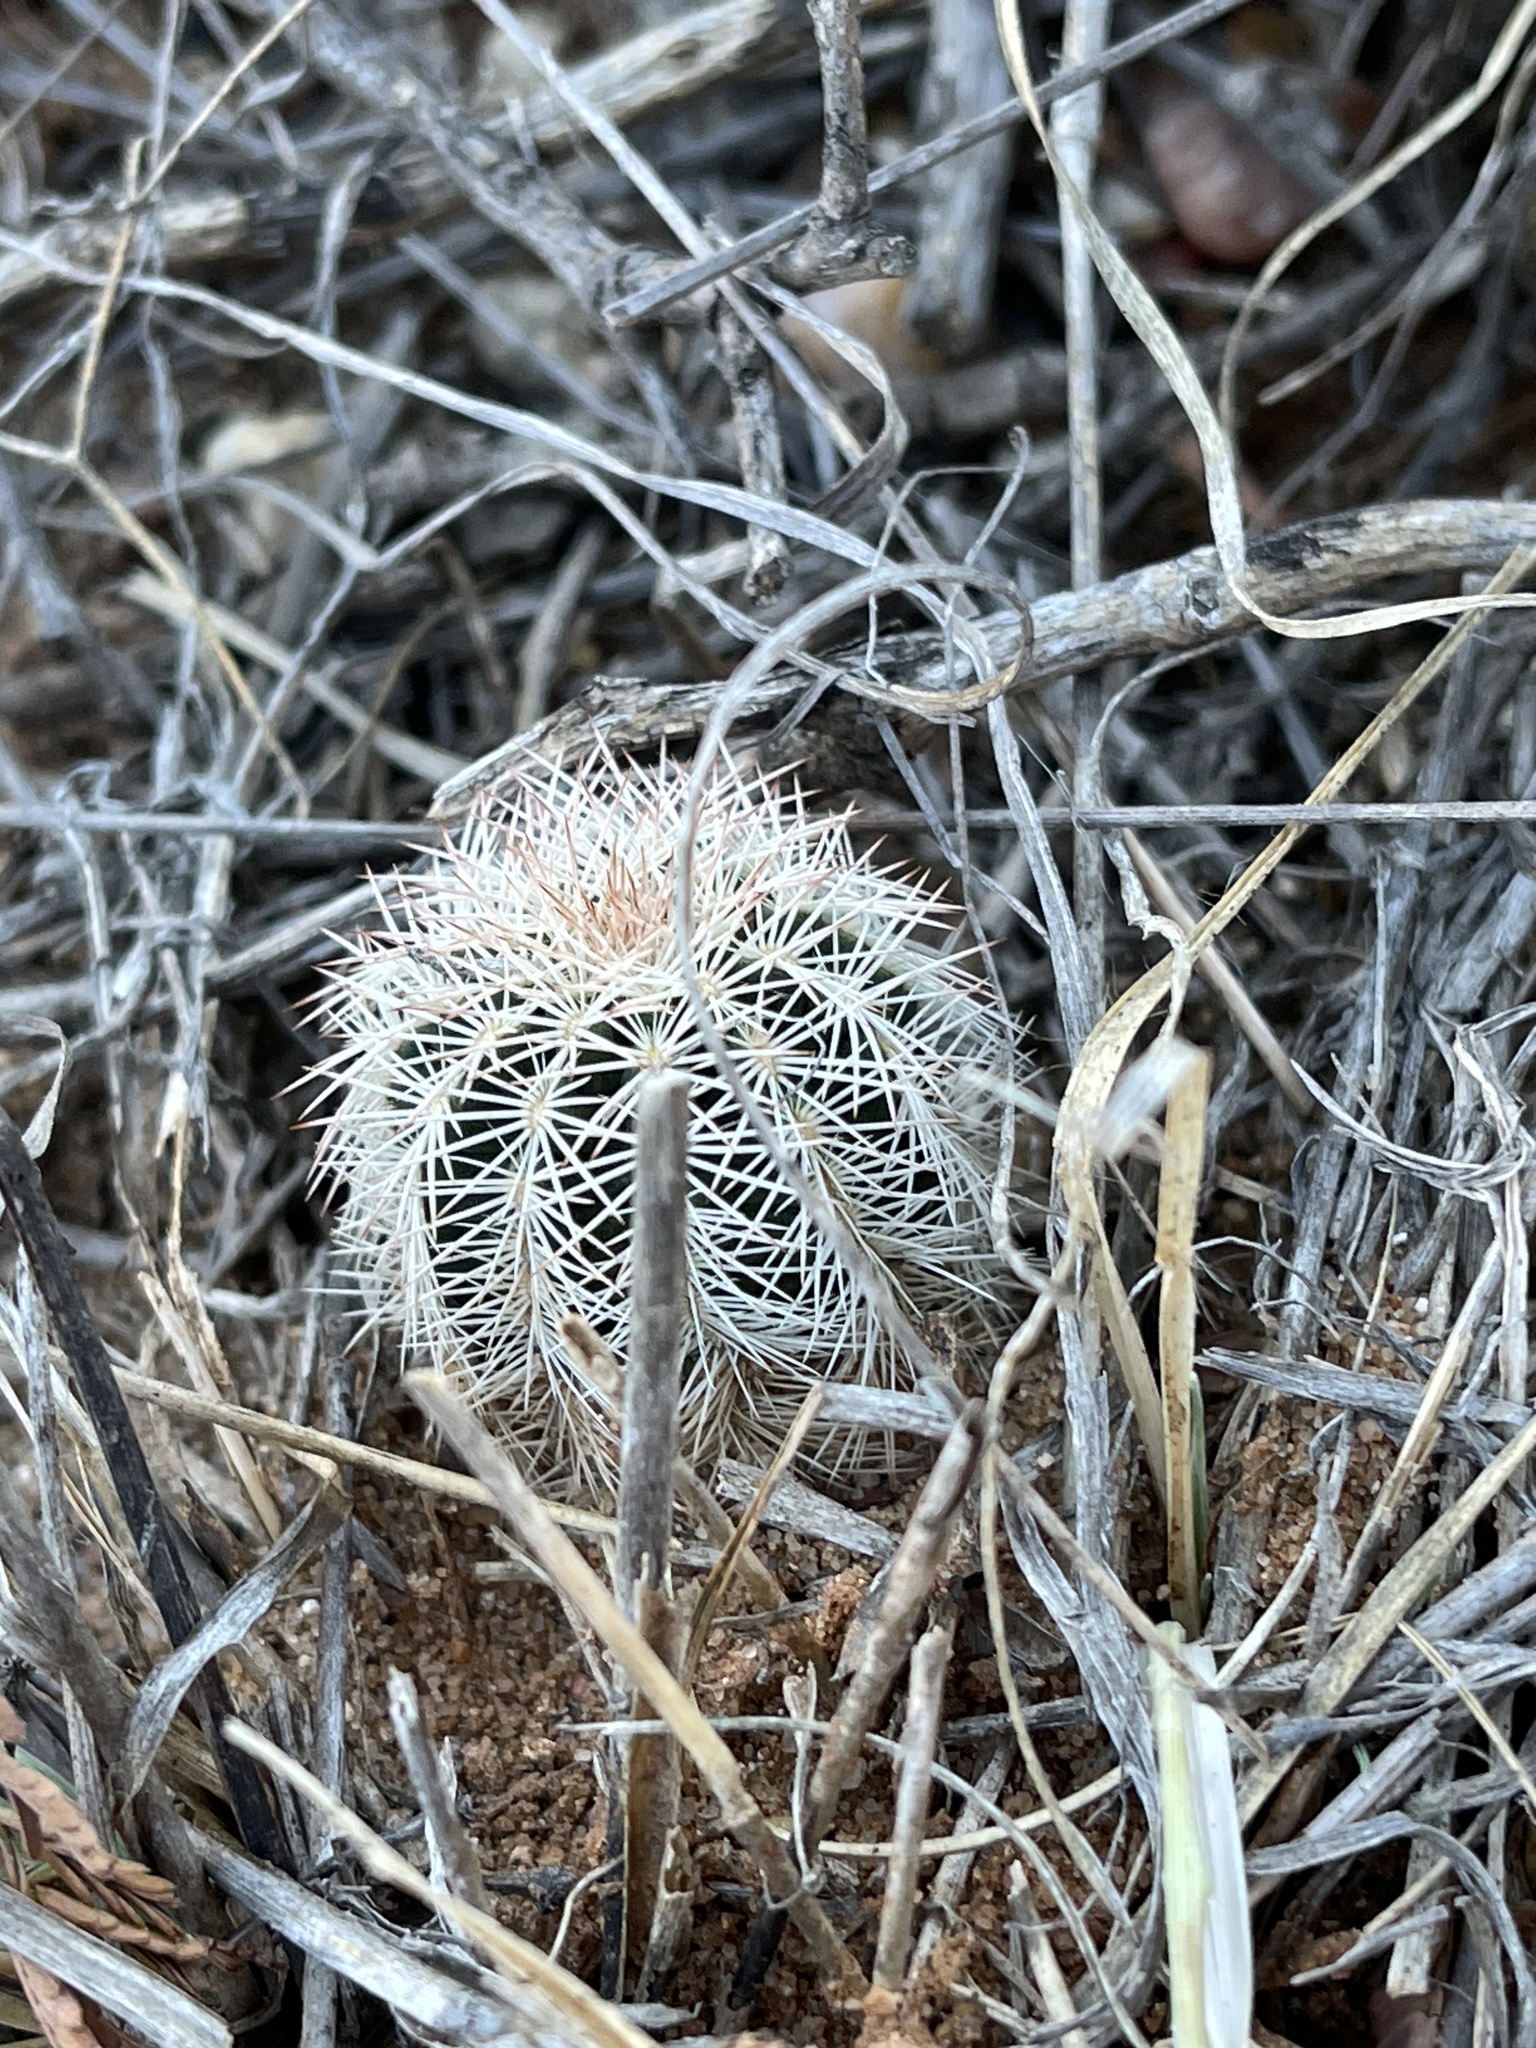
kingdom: Plantae
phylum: Tracheophyta
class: Magnoliopsida
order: Caryophyllales
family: Cactaceae
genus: Echinocereus
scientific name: Echinocereus reichenbachii
